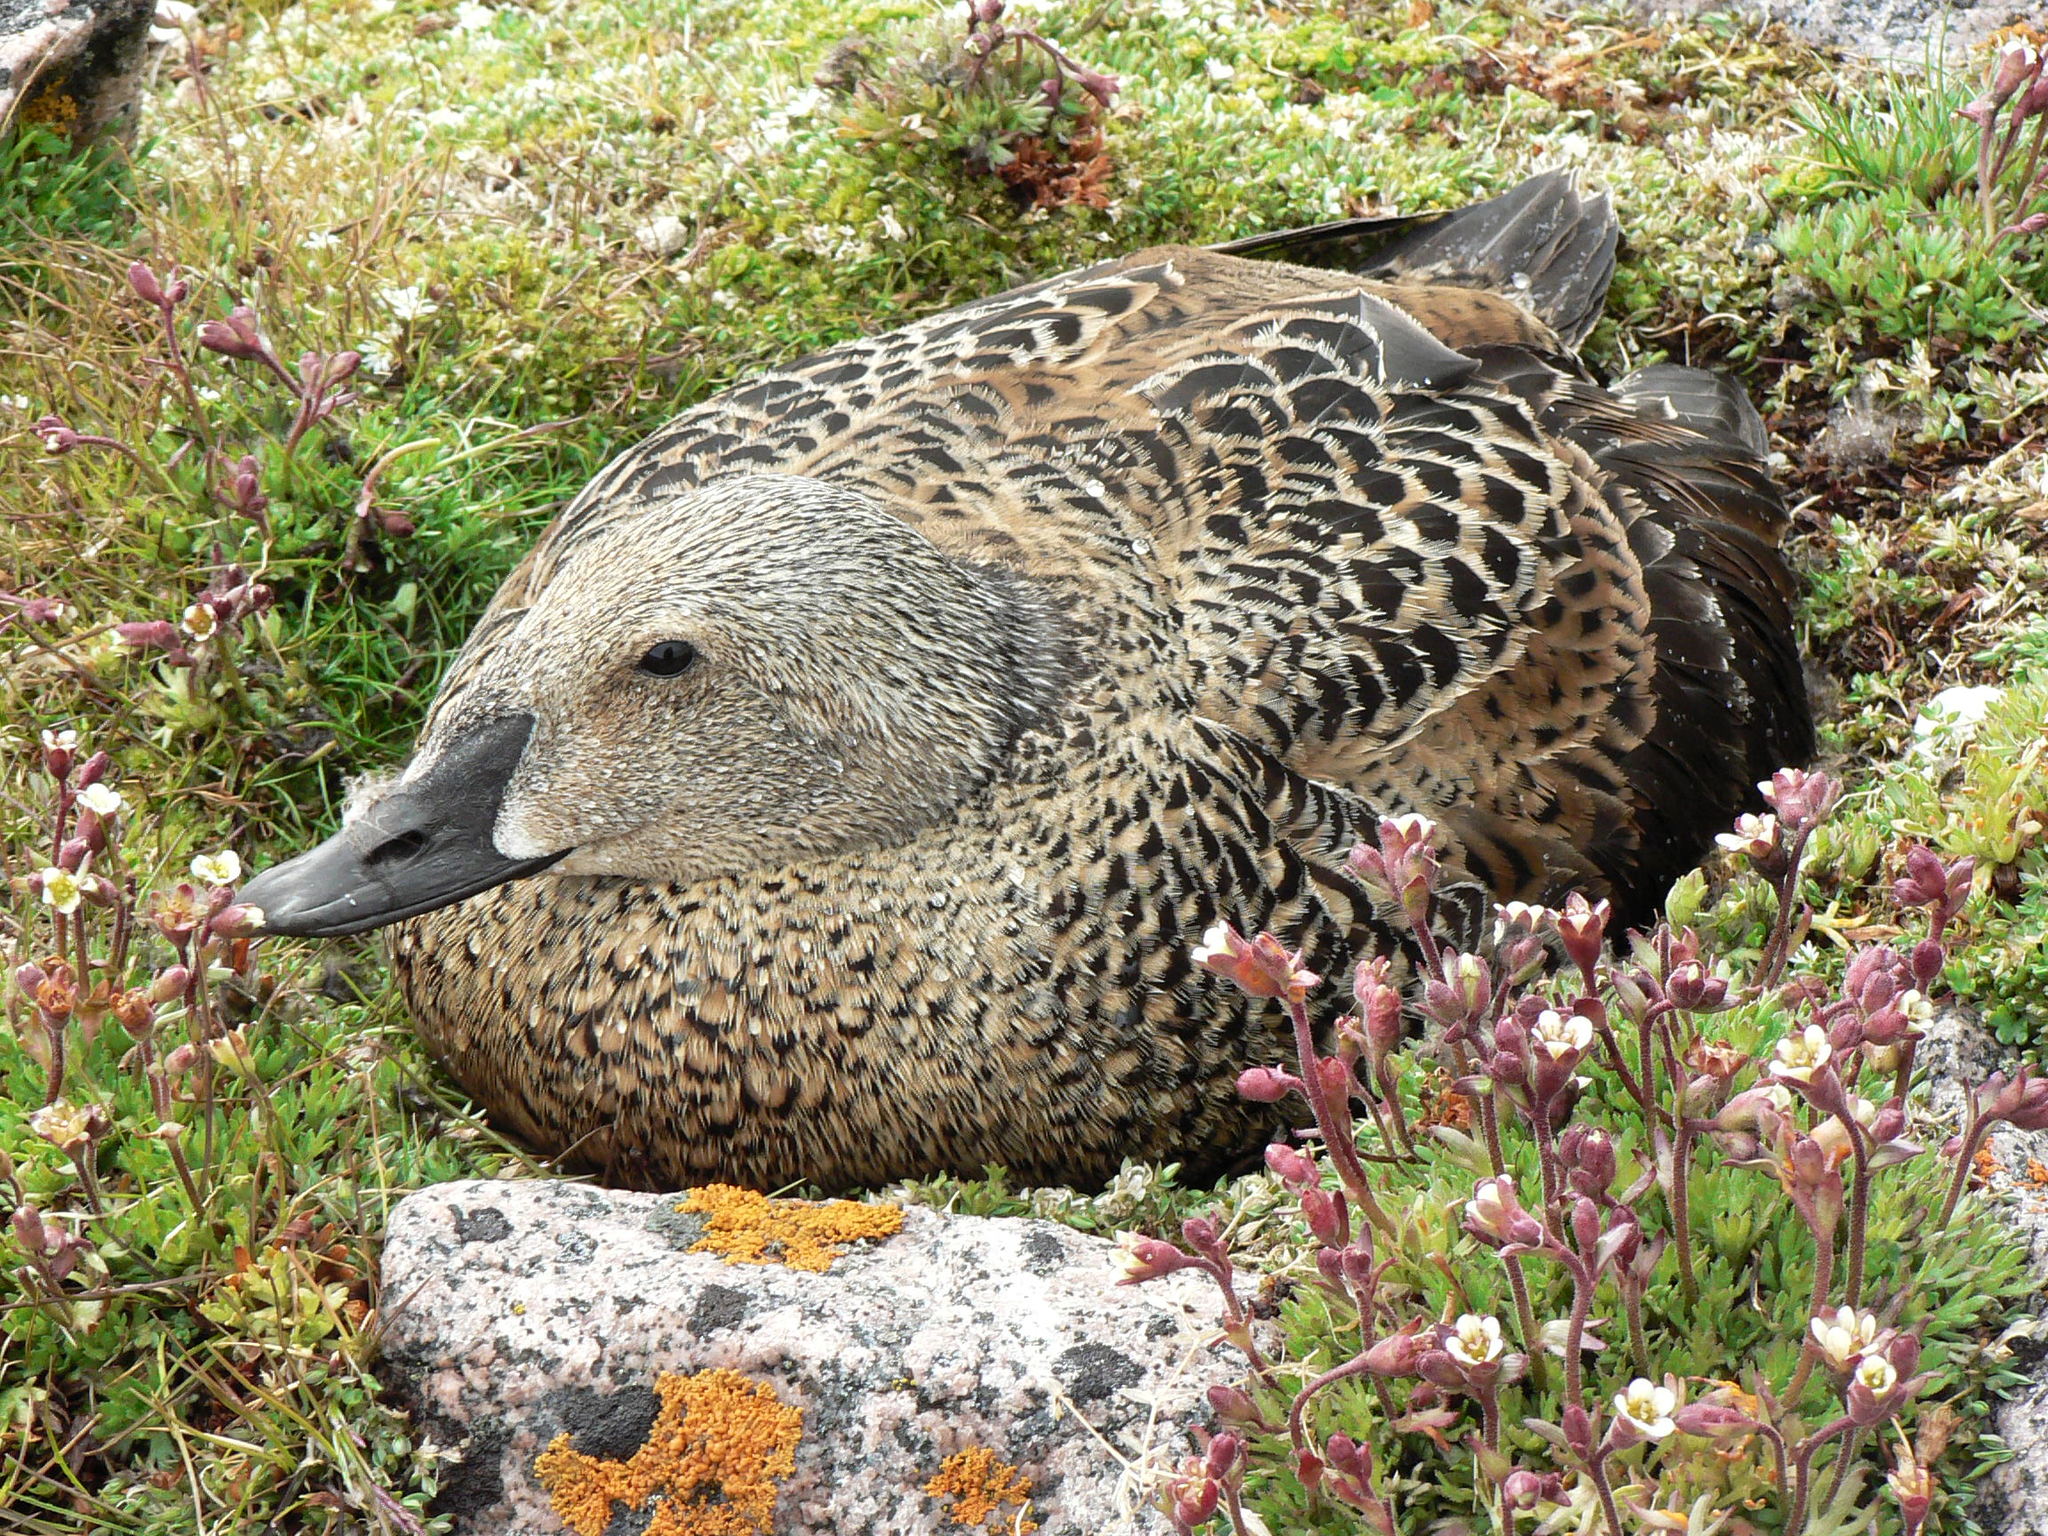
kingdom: Animalia
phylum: Chordata
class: Aves
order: Anseriformes
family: Anatidae
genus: Somateria
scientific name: Somateria spectabilis
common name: King eider
